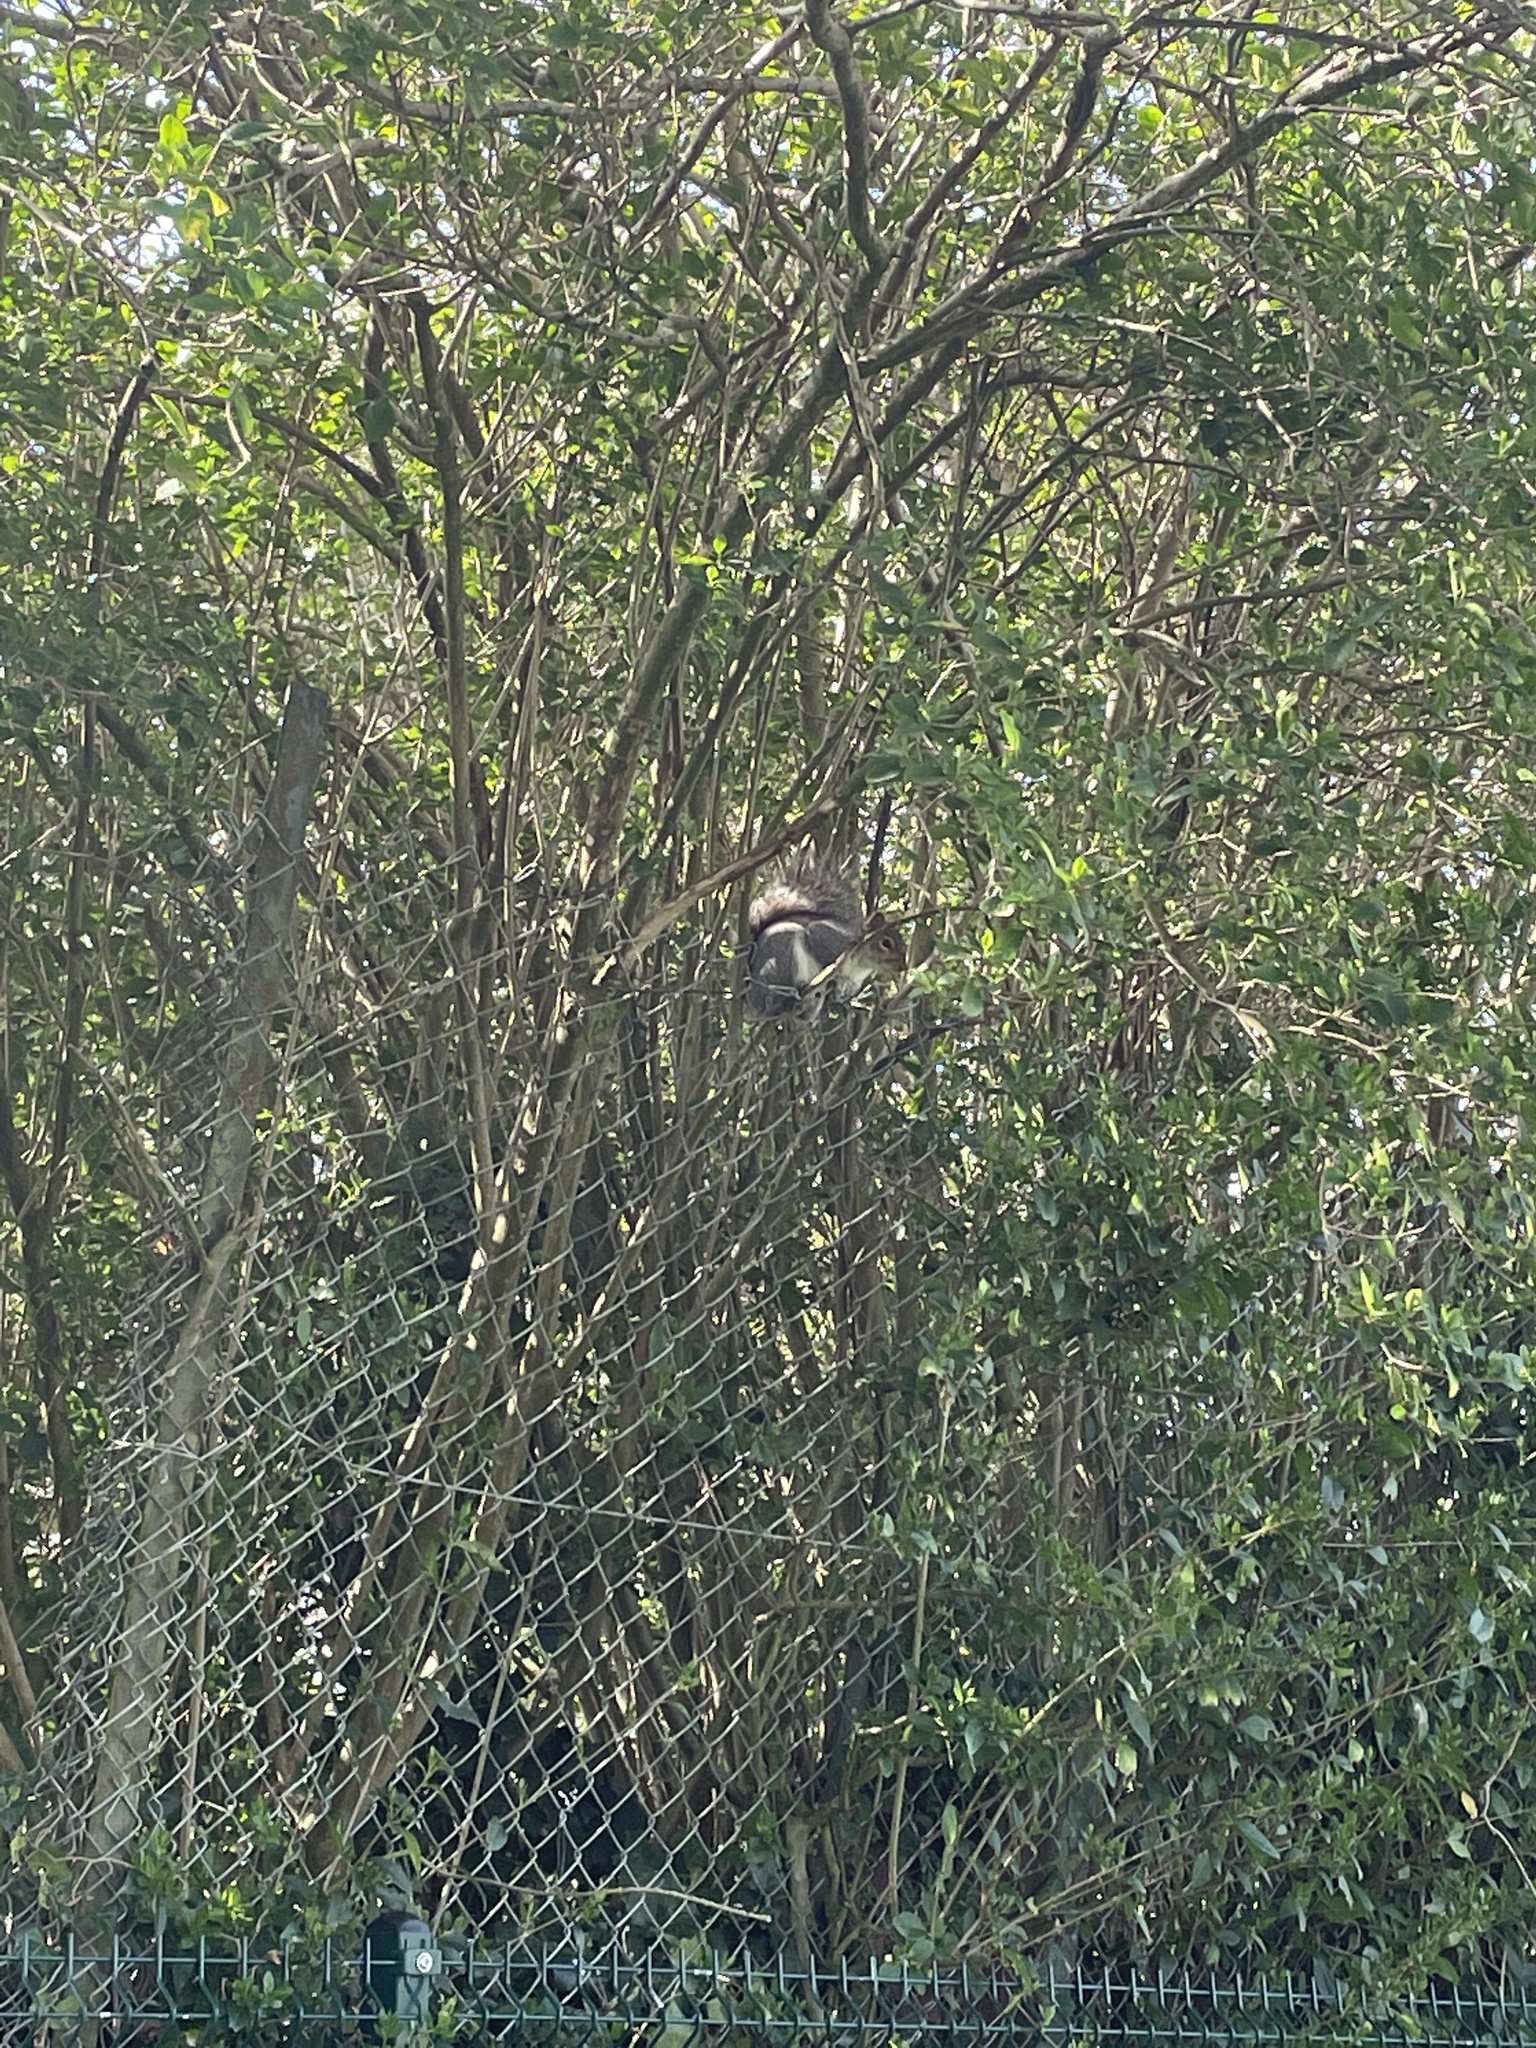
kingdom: Animalia
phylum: Chordata
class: Mammalia
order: Rodentia
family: Sciuridae
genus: Sciurus
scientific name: Sciurus carolinensis
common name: Eastern gray squirrel
